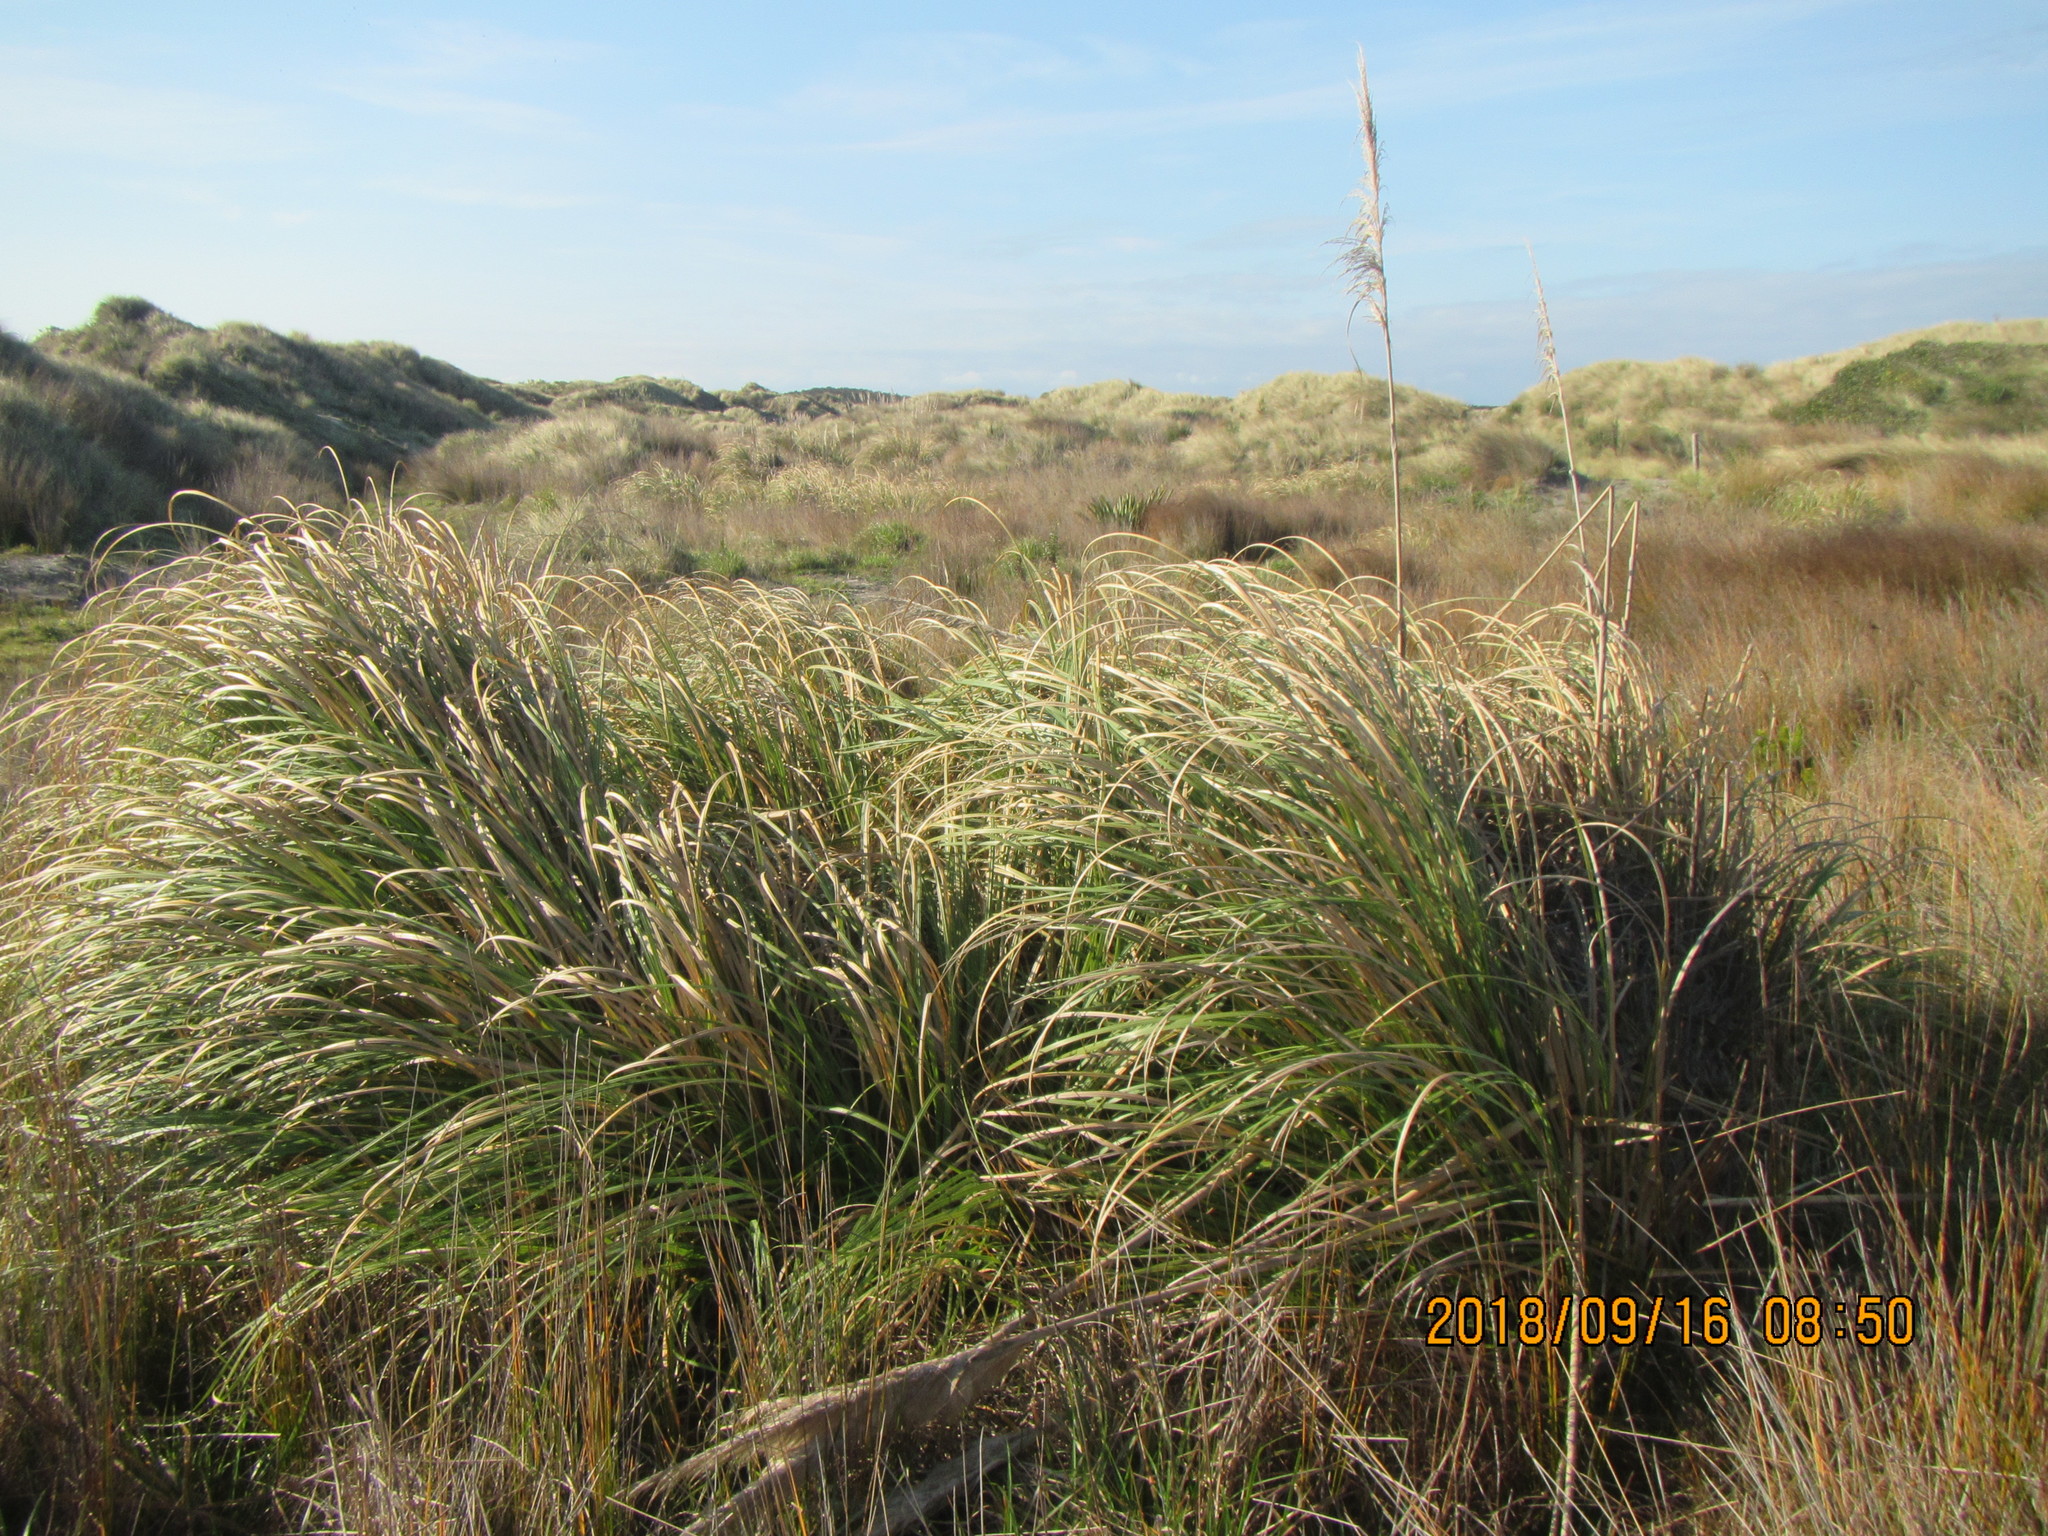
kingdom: Plantae
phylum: Tracheophyta
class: Liliopsida
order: Poales
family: Poaceae
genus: Cortaderia
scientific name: Cortaderia selloana
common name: Uruguayan pampas grass
